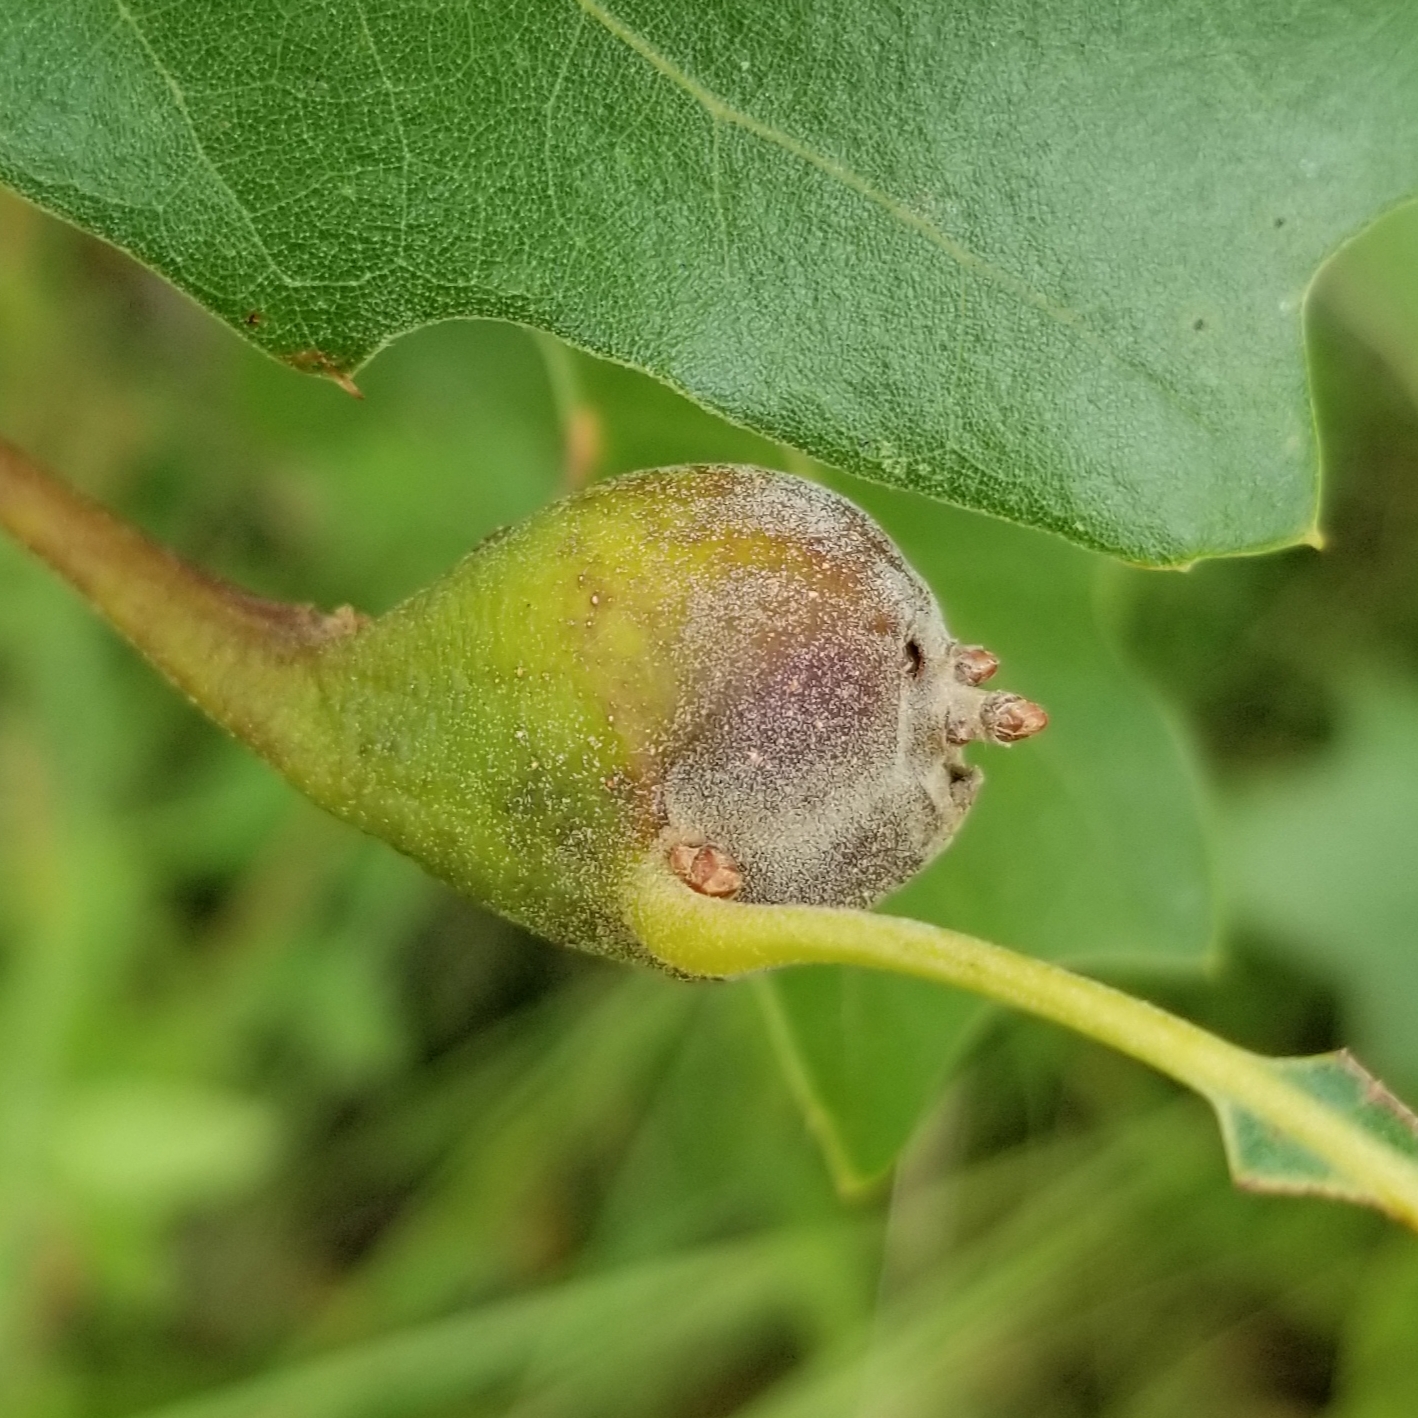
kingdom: Animalia
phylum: Arthropoda
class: Insecta
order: Hymenoptera
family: Cynipidae
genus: Zapatella
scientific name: Zapatella quercusphellos
